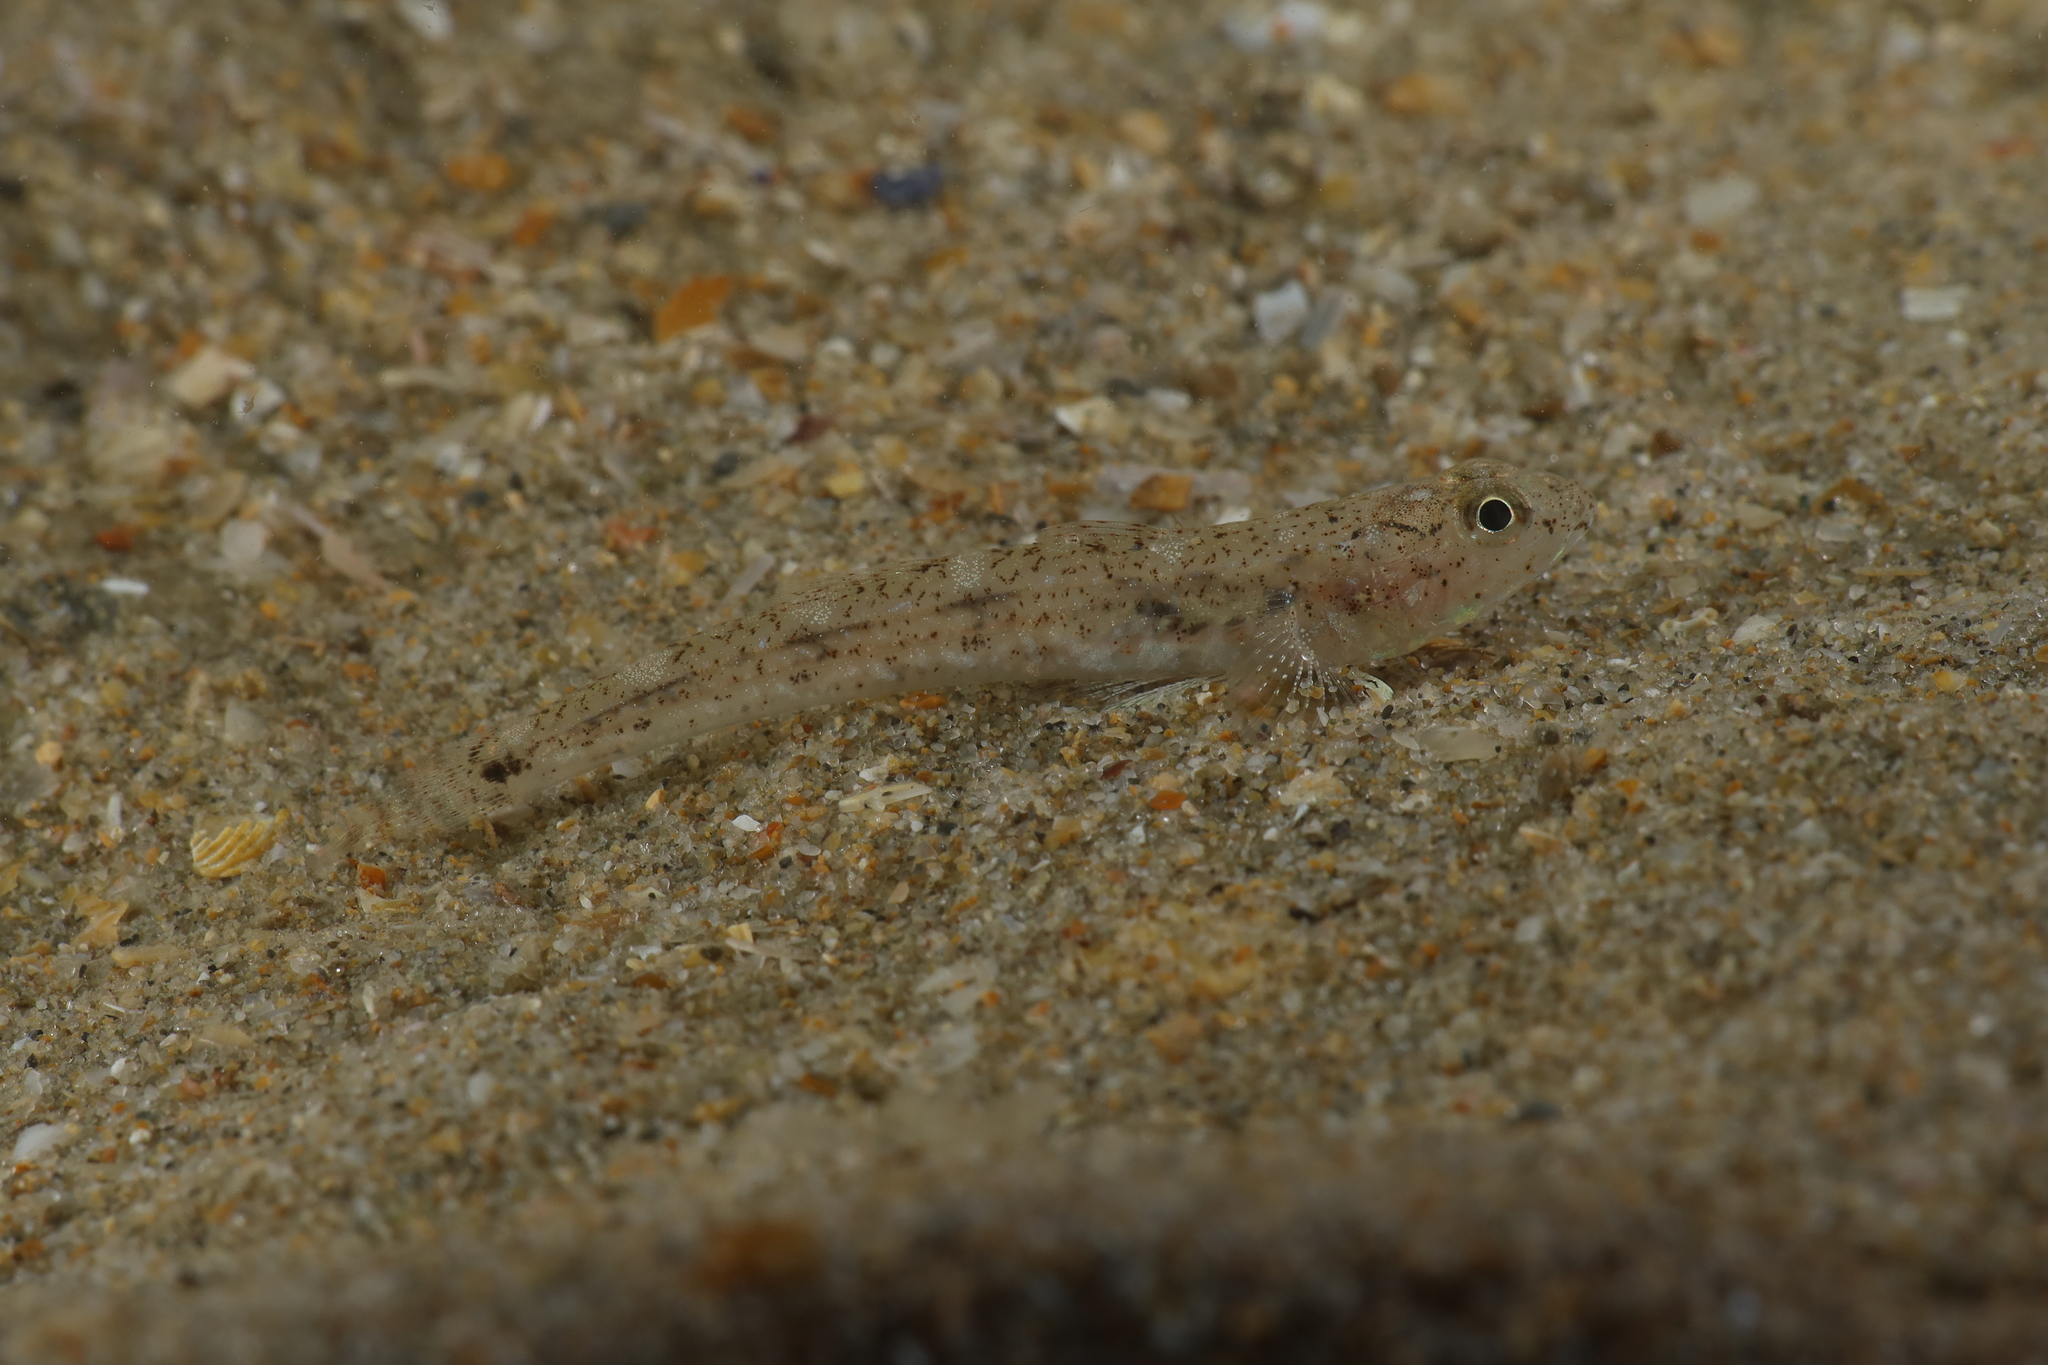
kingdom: Animalia
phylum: Chordata
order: Perciformes
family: Gobiidae
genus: Pomatoschistus
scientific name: Pomatoschistus marmoratus
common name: Marbled goby
